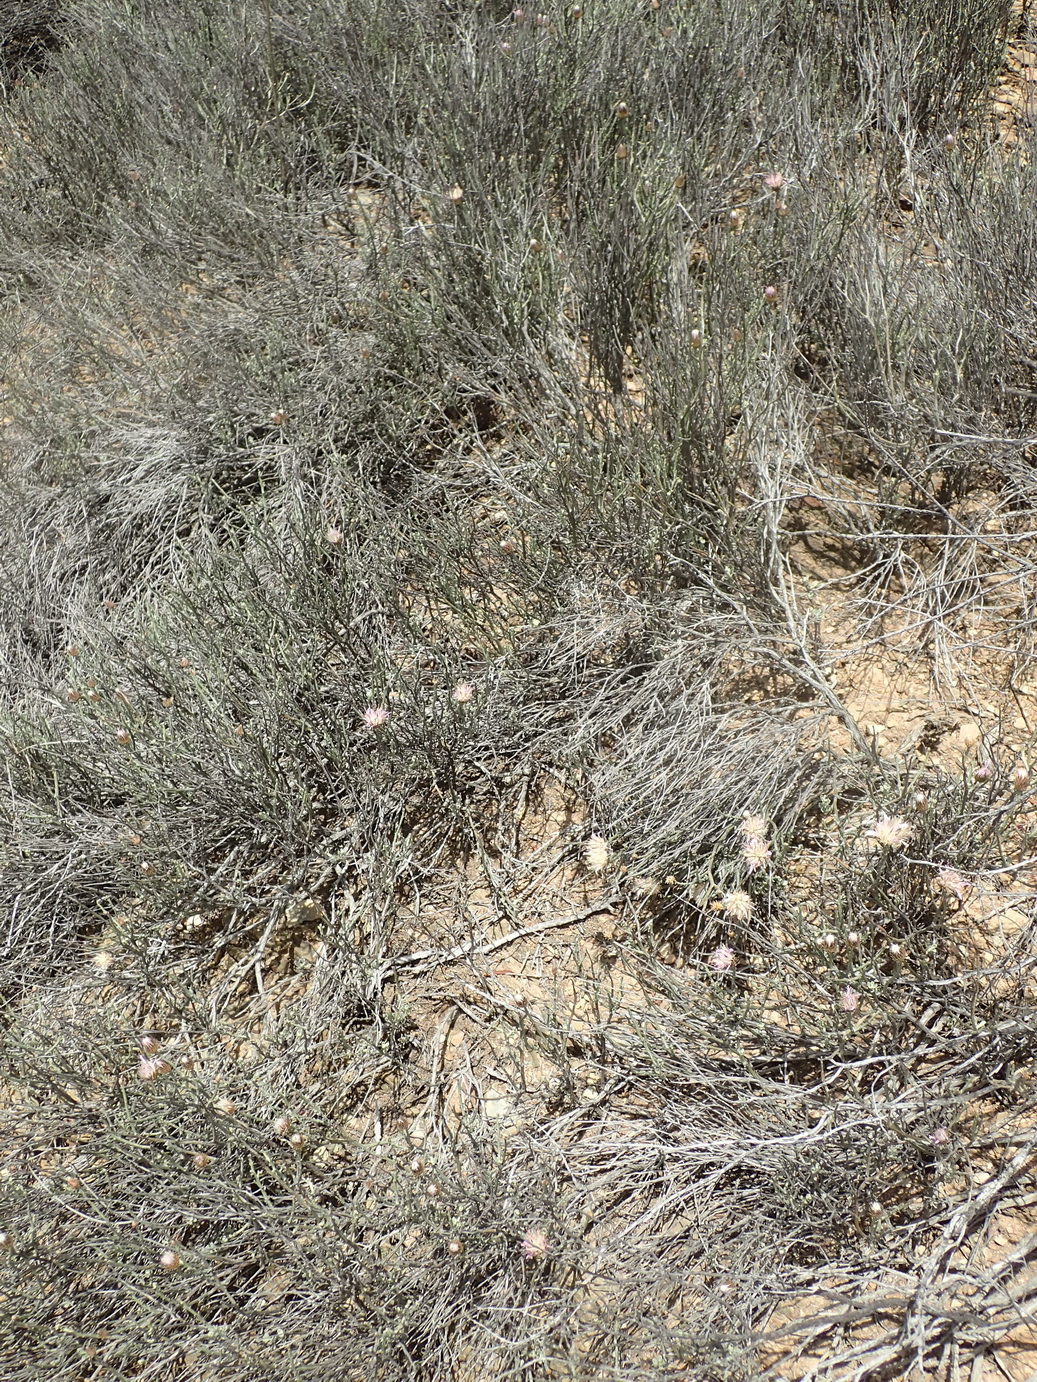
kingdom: Plantae
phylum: Tracheophyta
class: Magnoliopsida
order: Asterales
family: Asteraceae
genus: Dicoma
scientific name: Dicoma picta
